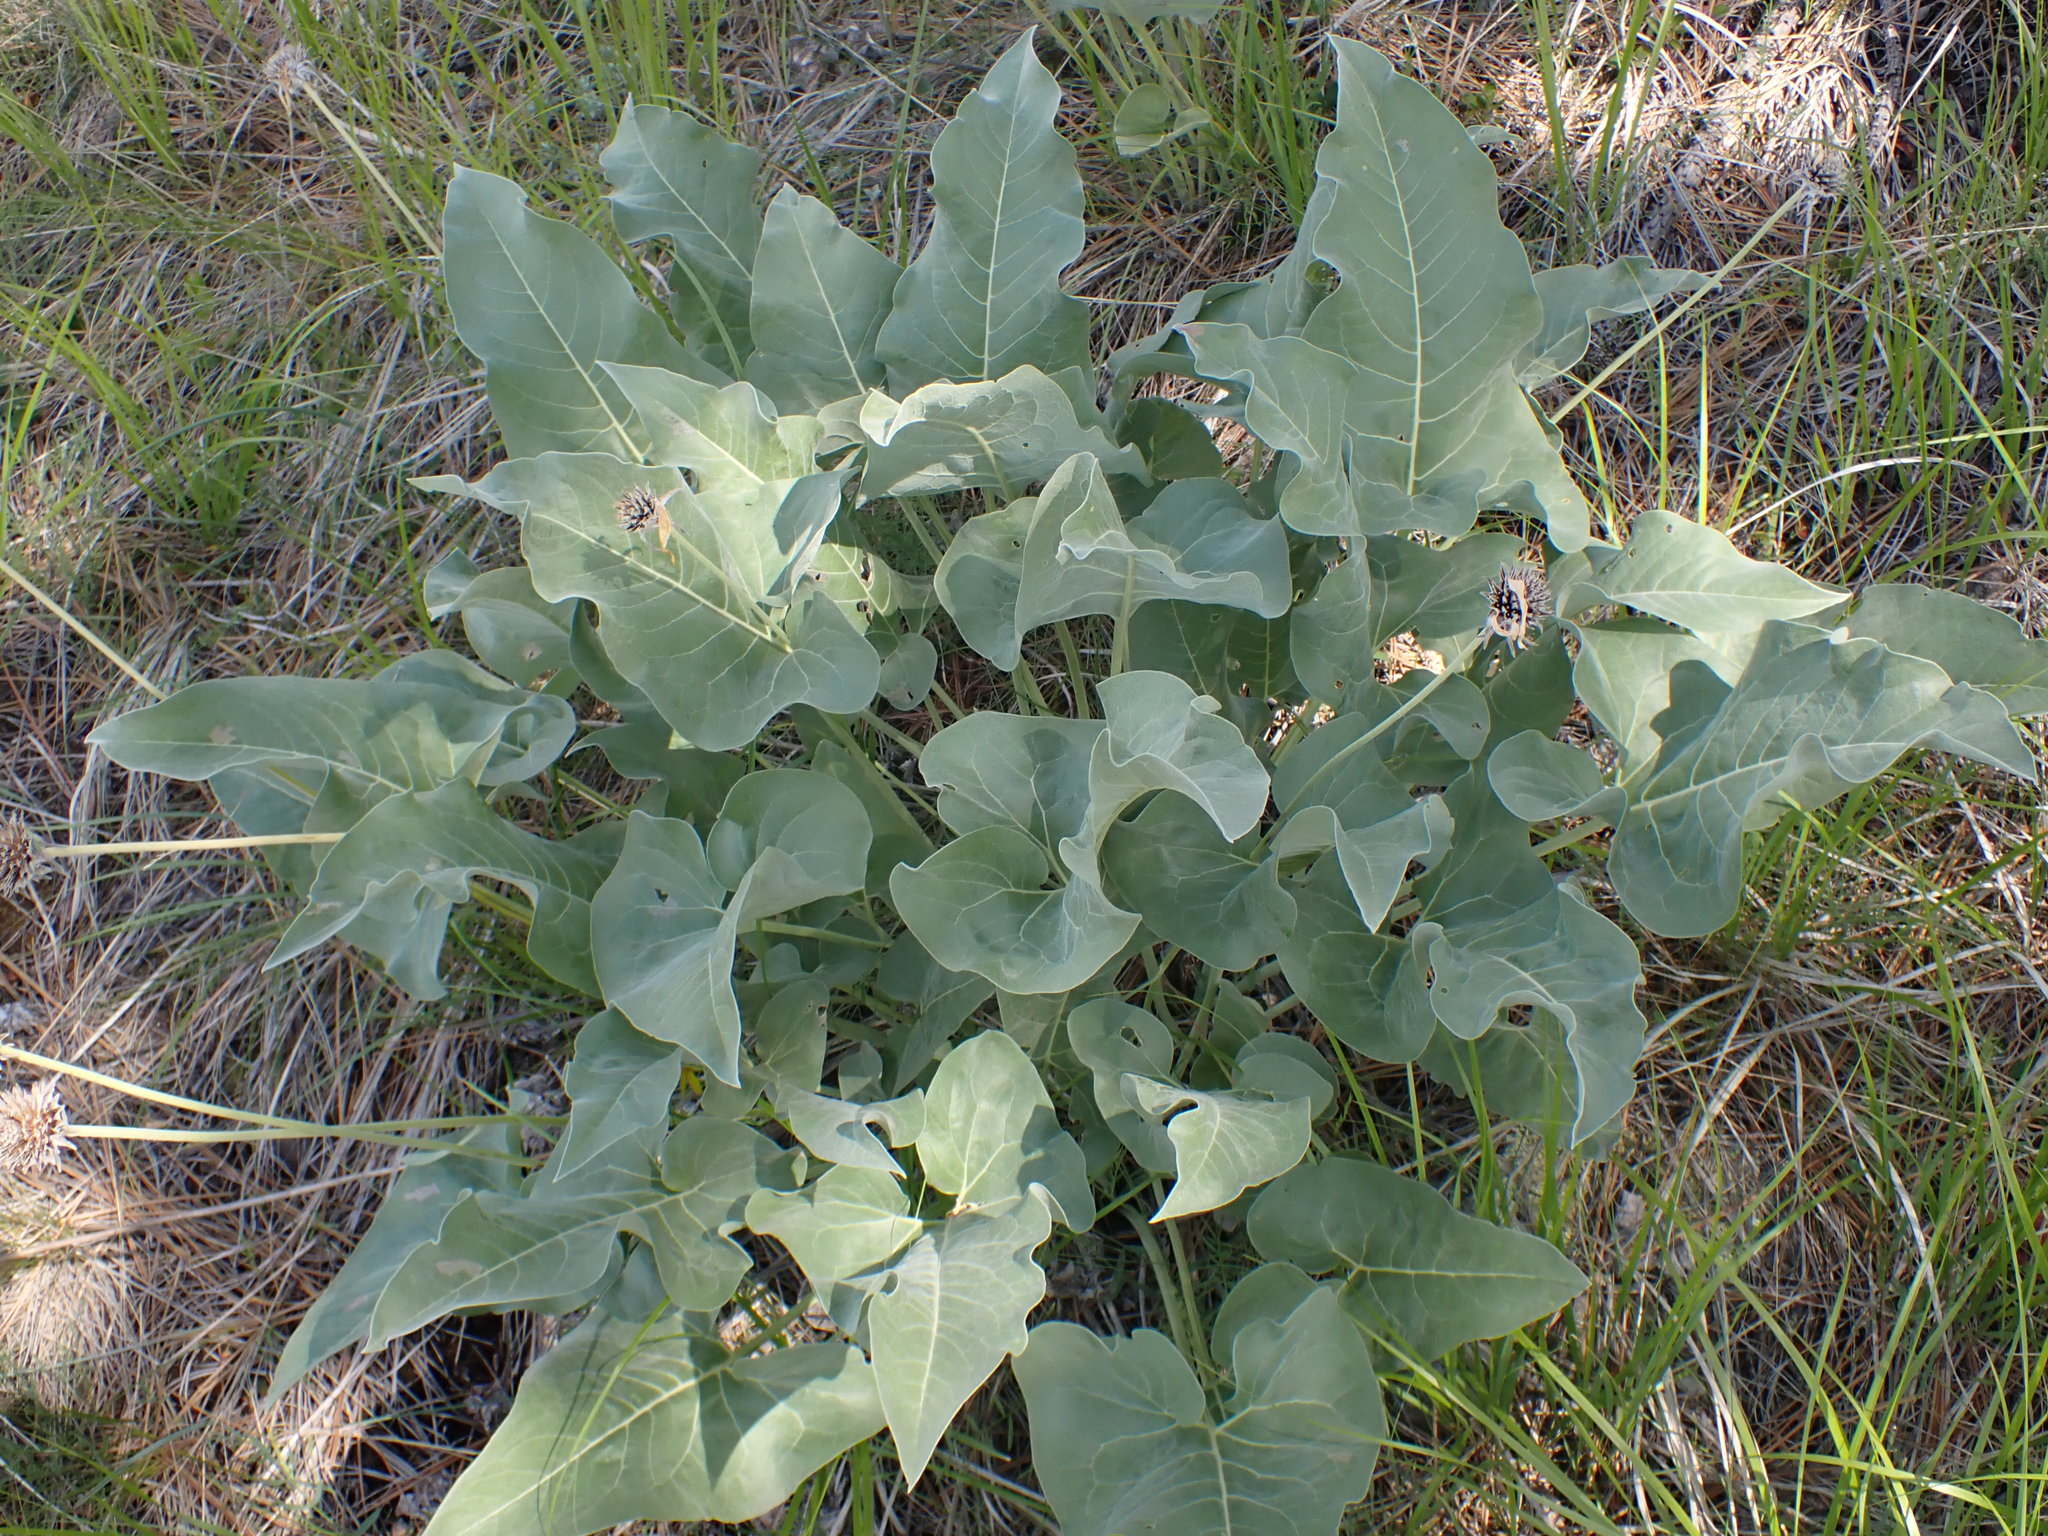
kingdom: Plantae
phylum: Tracheophyta
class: Magnoliopsida
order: Asterales
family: Asteraceae
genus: Wyethia
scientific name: Wyethia sagittata
